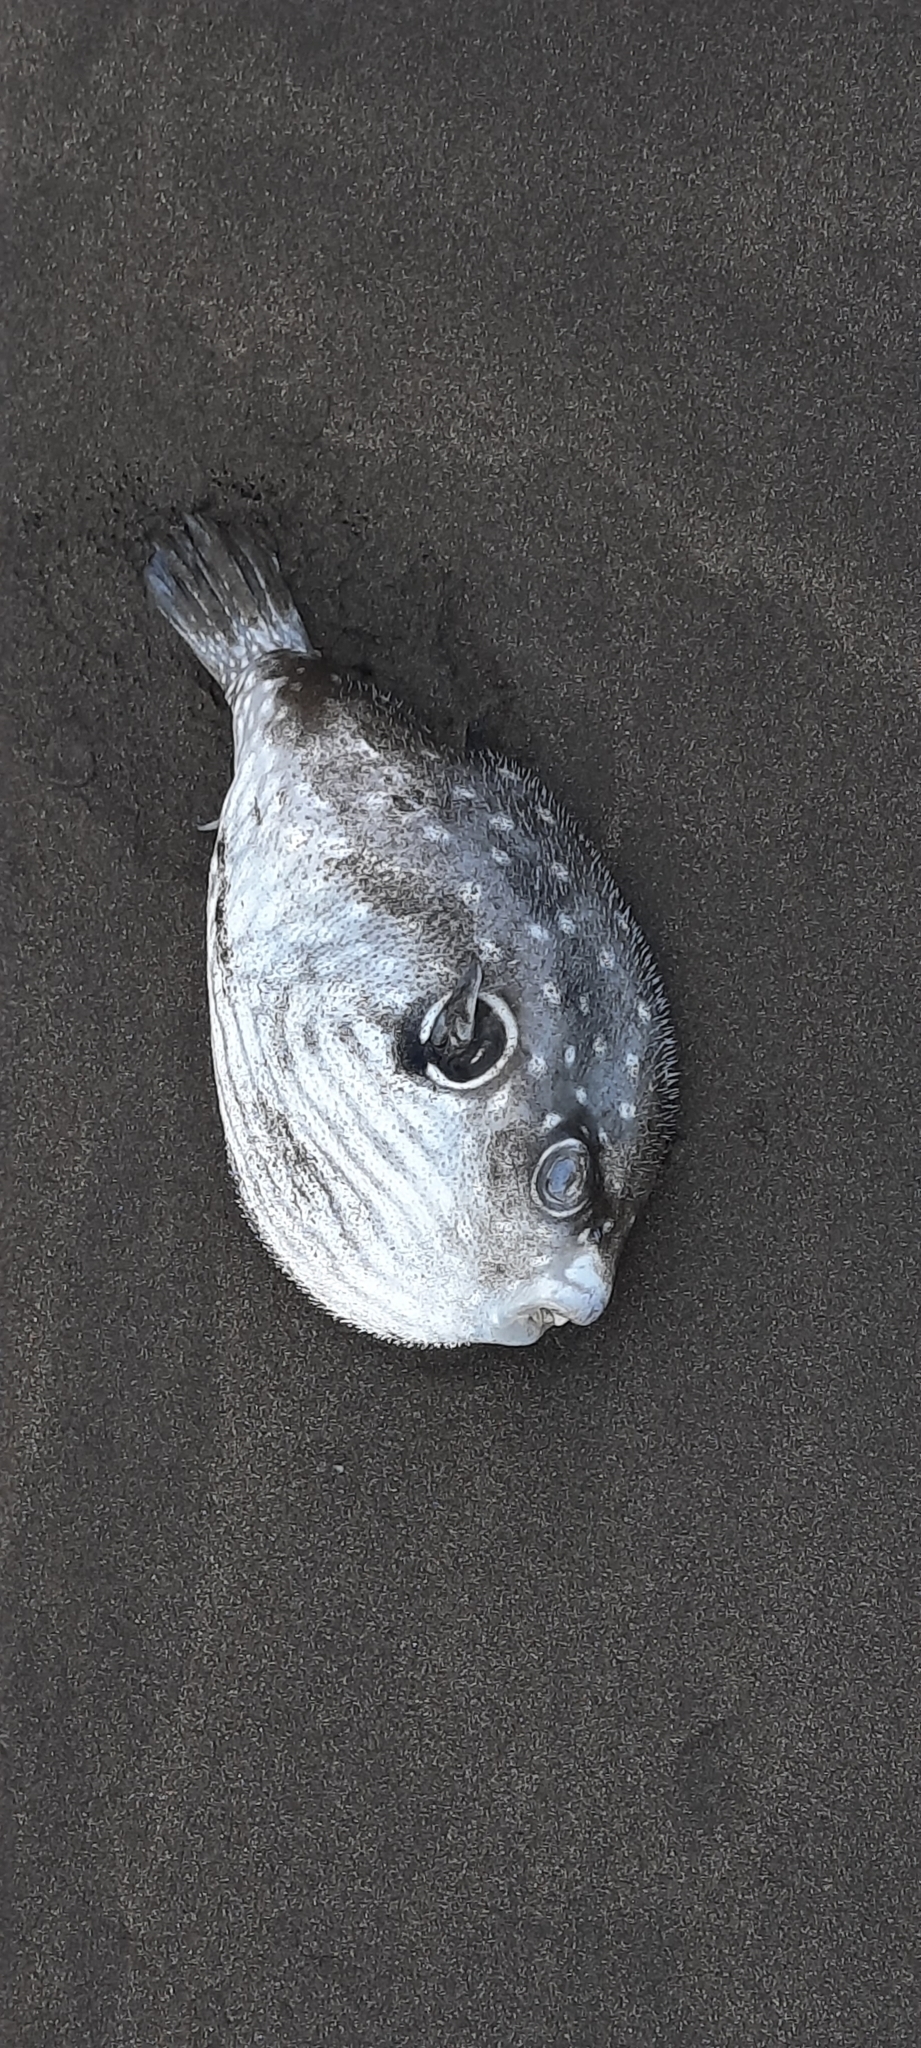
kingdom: Animalia
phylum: Chordata
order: Tetraodontiformes
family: Tetraodontidae
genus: Arothron
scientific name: Arothron hispidus
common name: Stripebelly puffer
